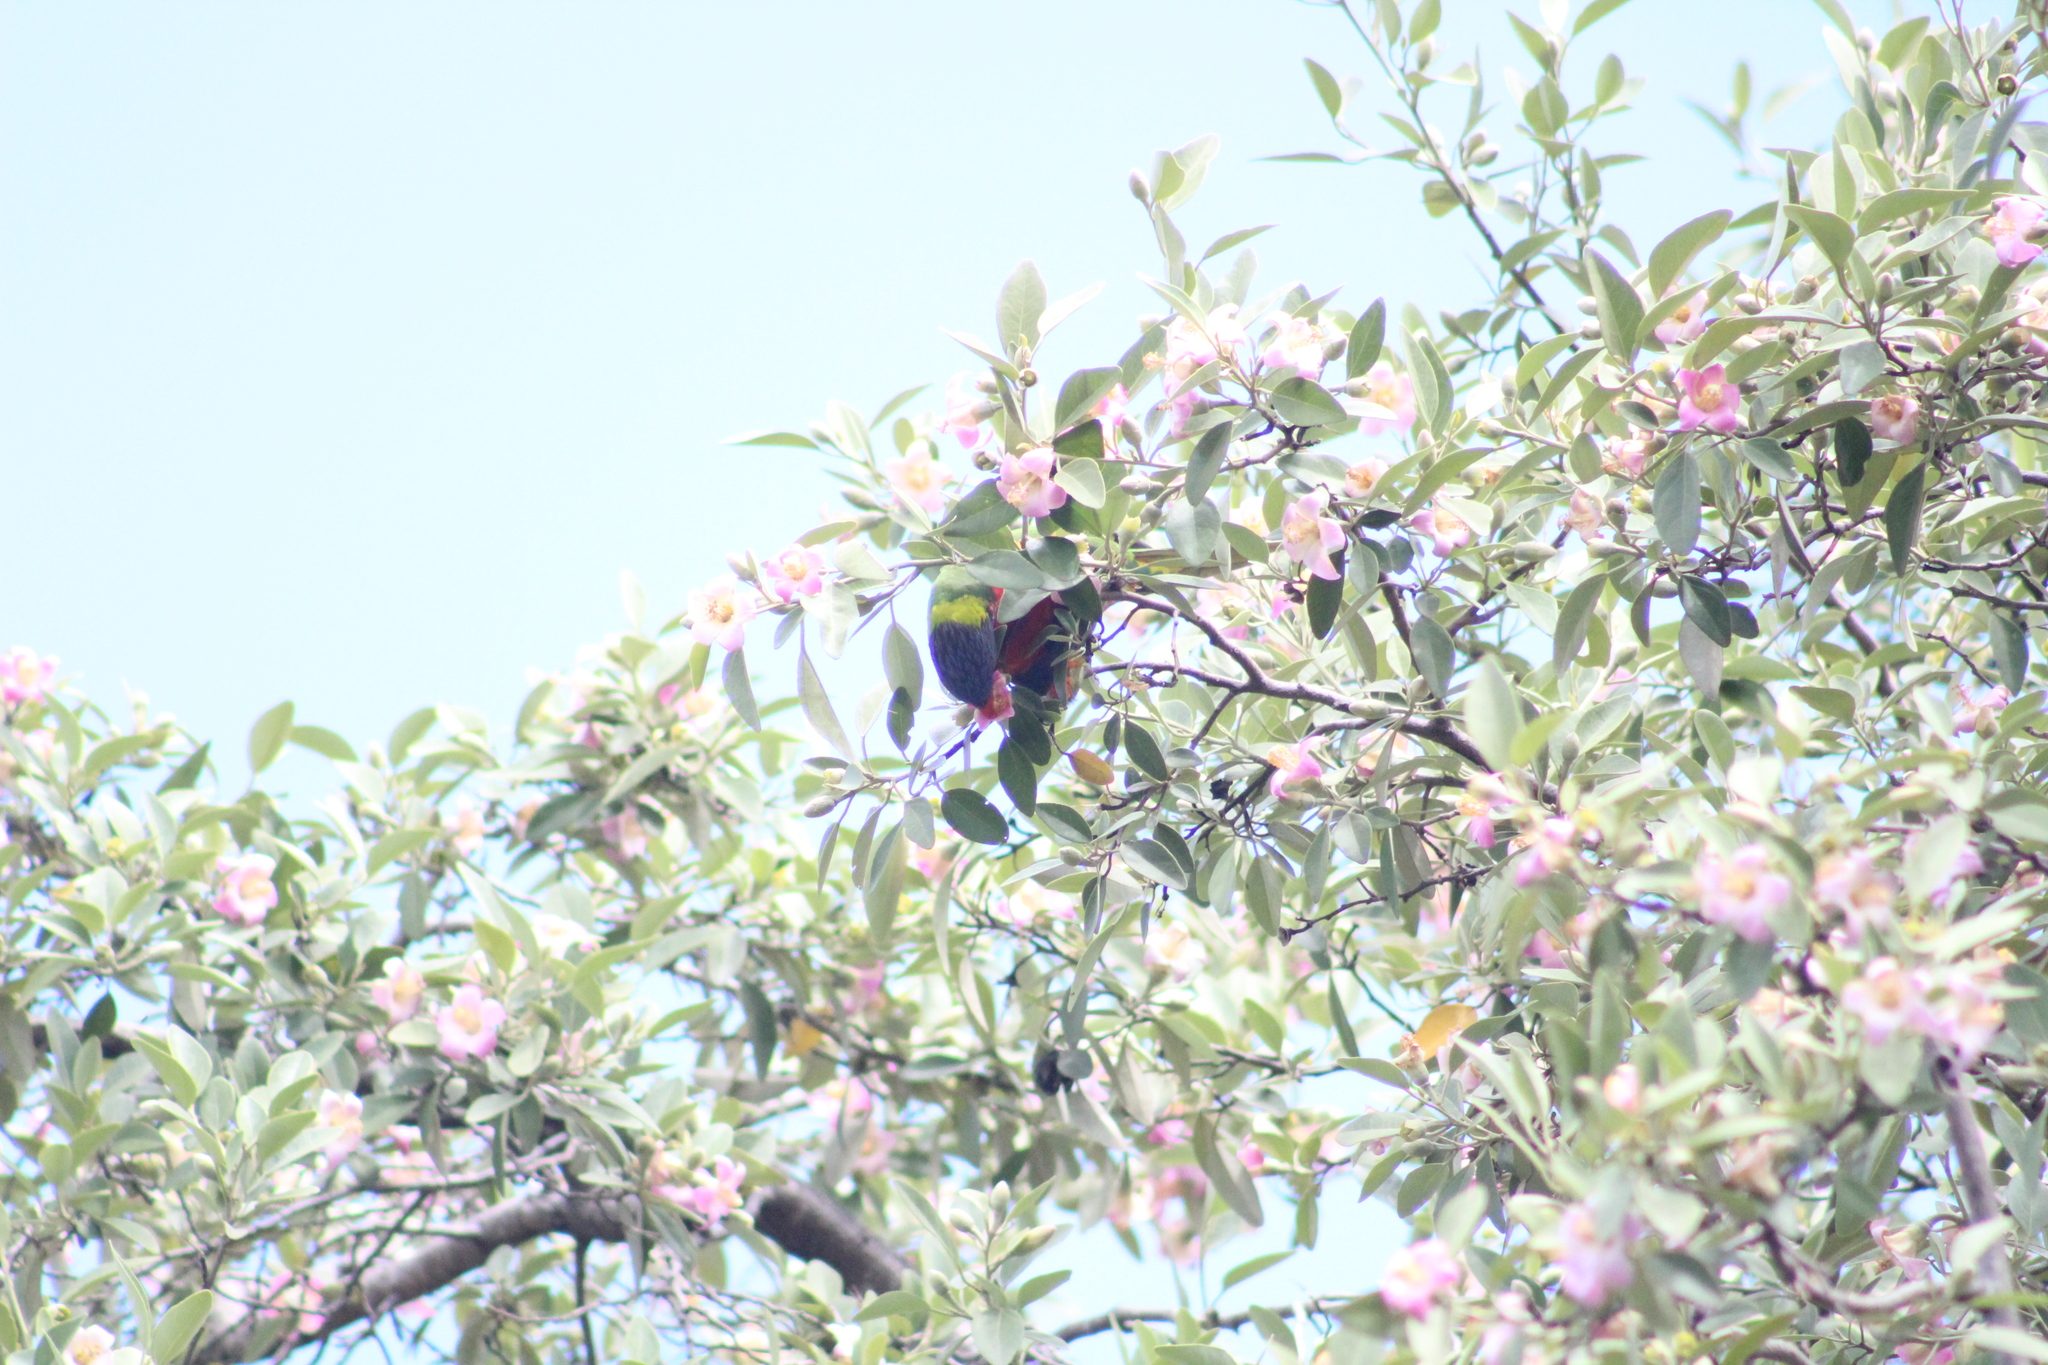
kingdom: Animalia
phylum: Chordata
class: Aves
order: Psittaciformes
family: Psittacidae
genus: Trichoglossus
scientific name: Trichoglossus haematodus
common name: Coconut lorikeet
